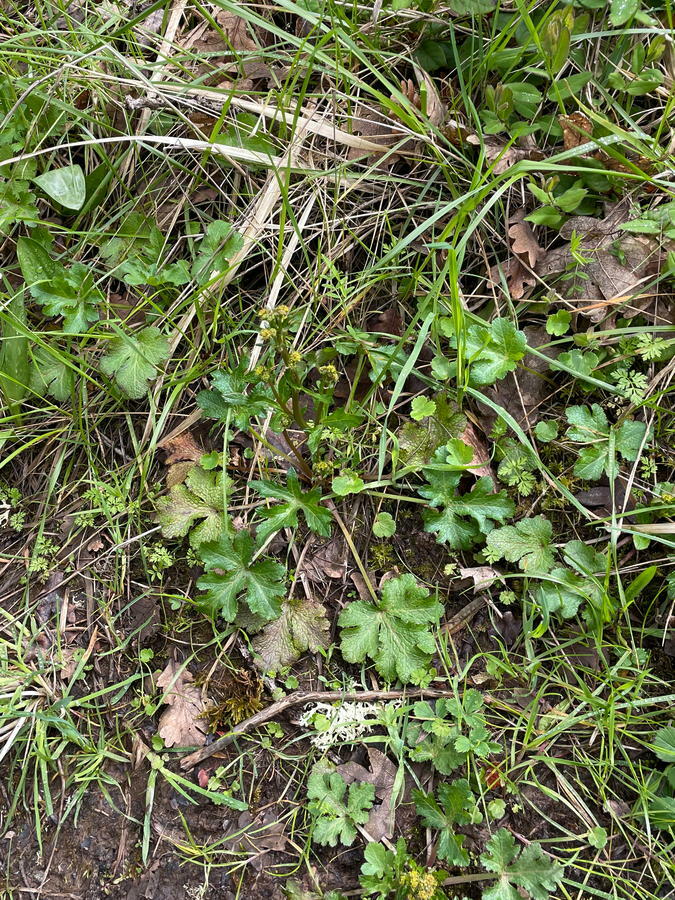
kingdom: Plantae
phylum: Tracheophyta
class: Magnoliopsida
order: Apiales
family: Apiaceae
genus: Sanicula
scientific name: Sanicula crassicaulis
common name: Western snakeroot
